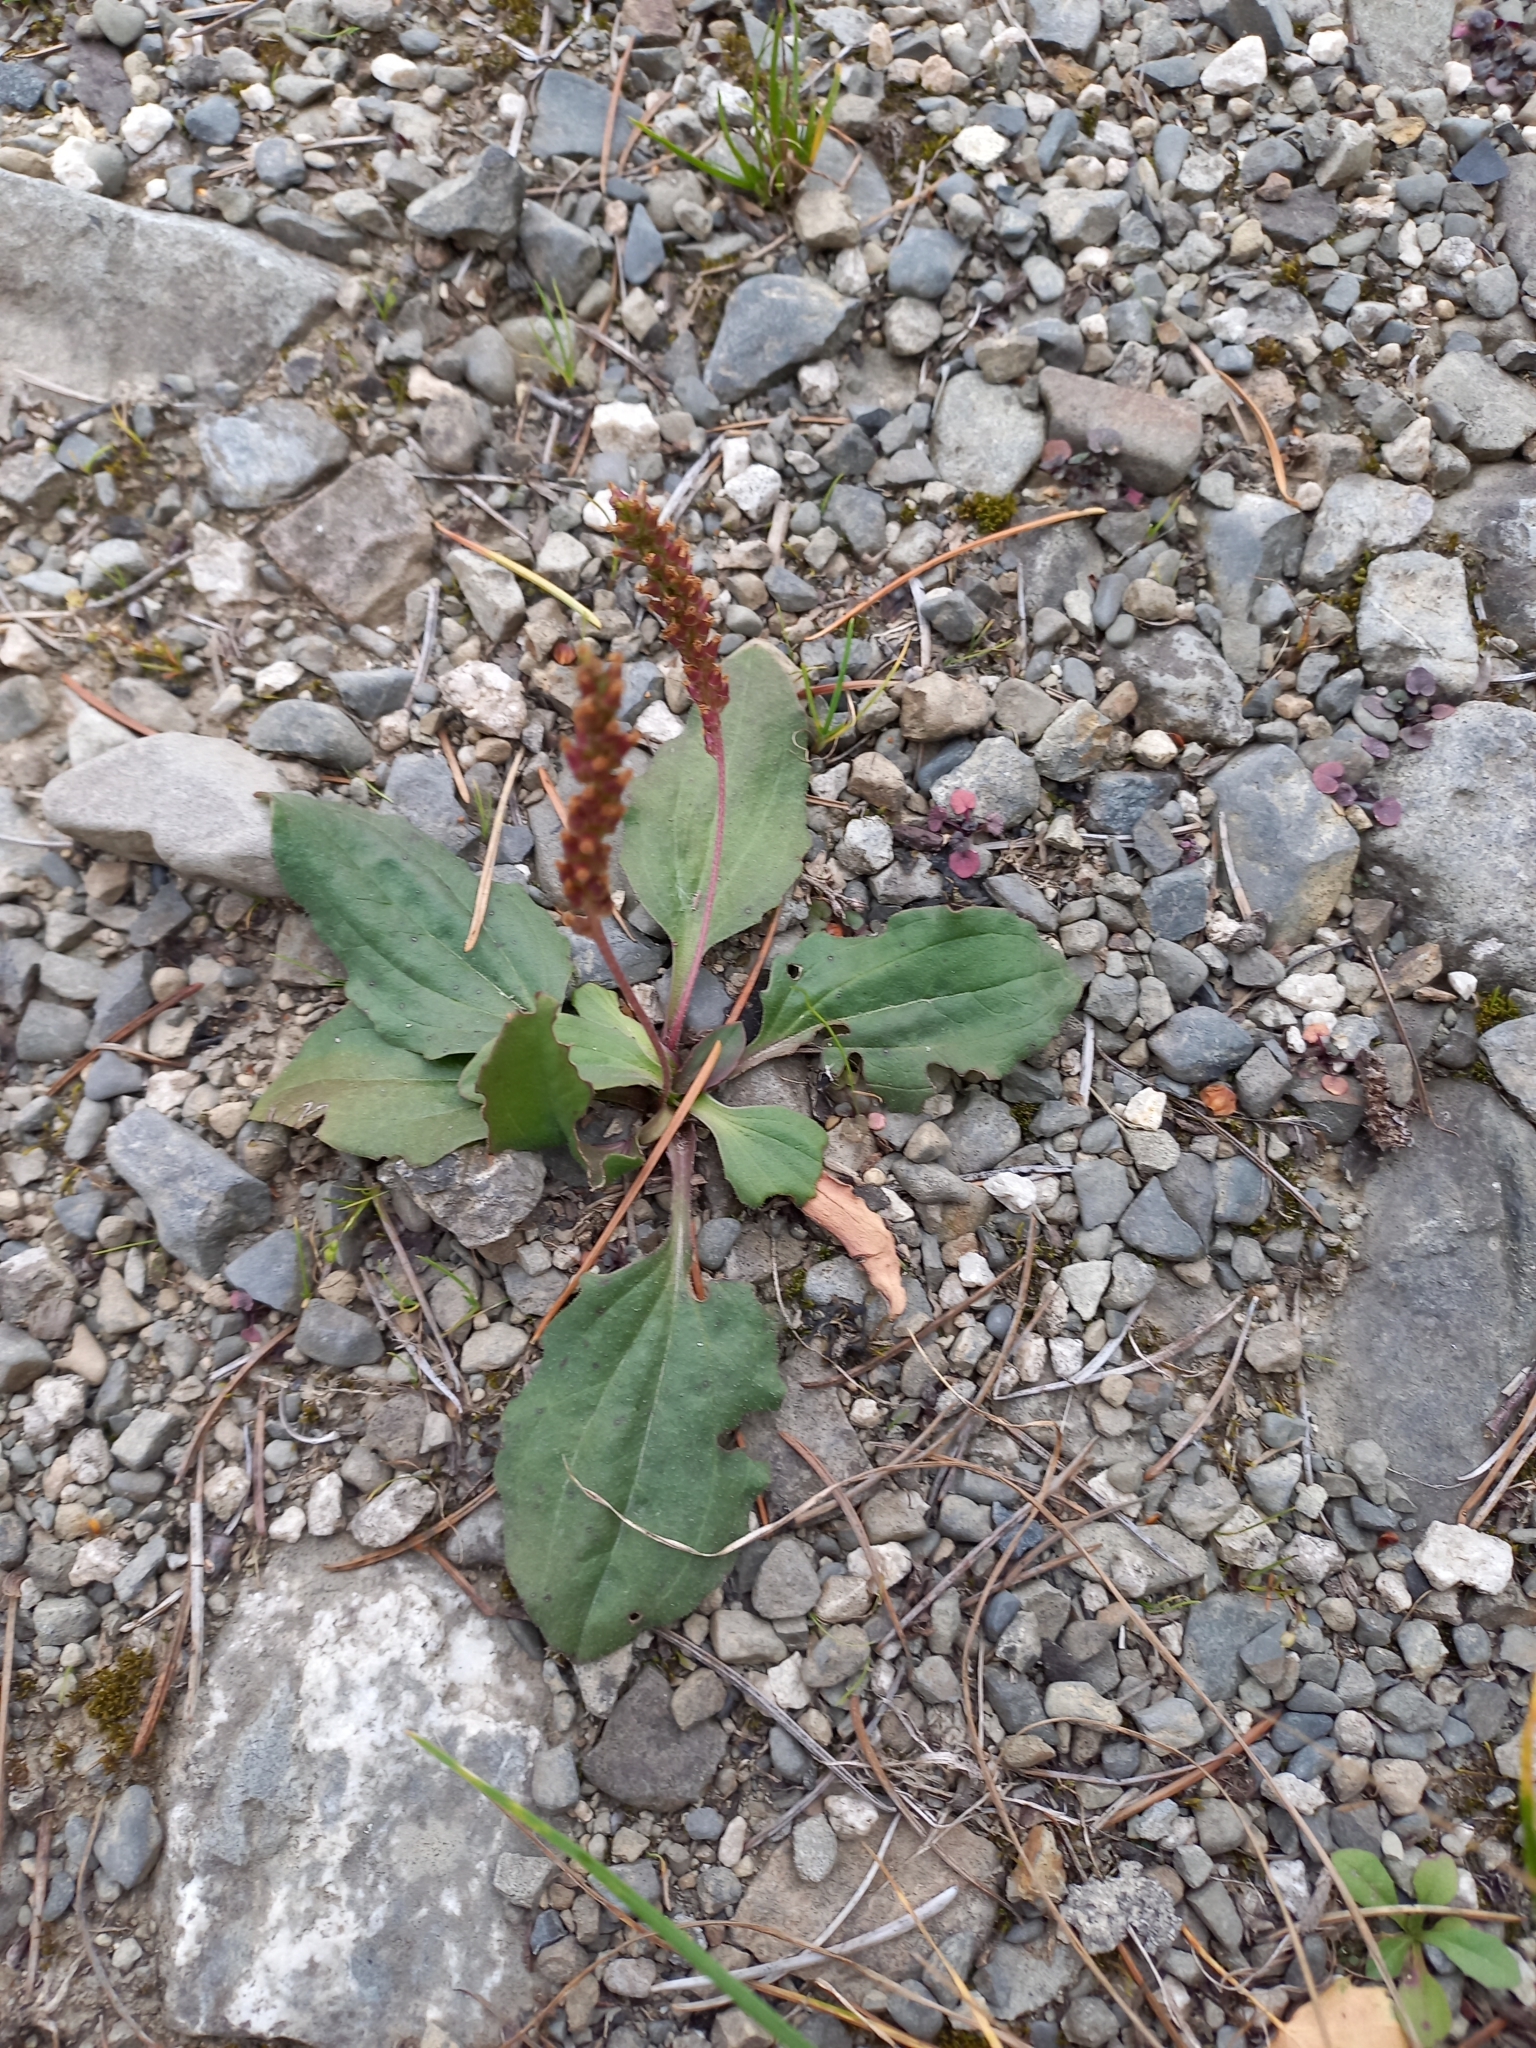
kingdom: Plantae
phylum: Tracheophyta
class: Magnoliopsida
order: Lamiales
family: Plantaginaceae
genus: Plantago
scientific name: Plantago major
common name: Common plantain
